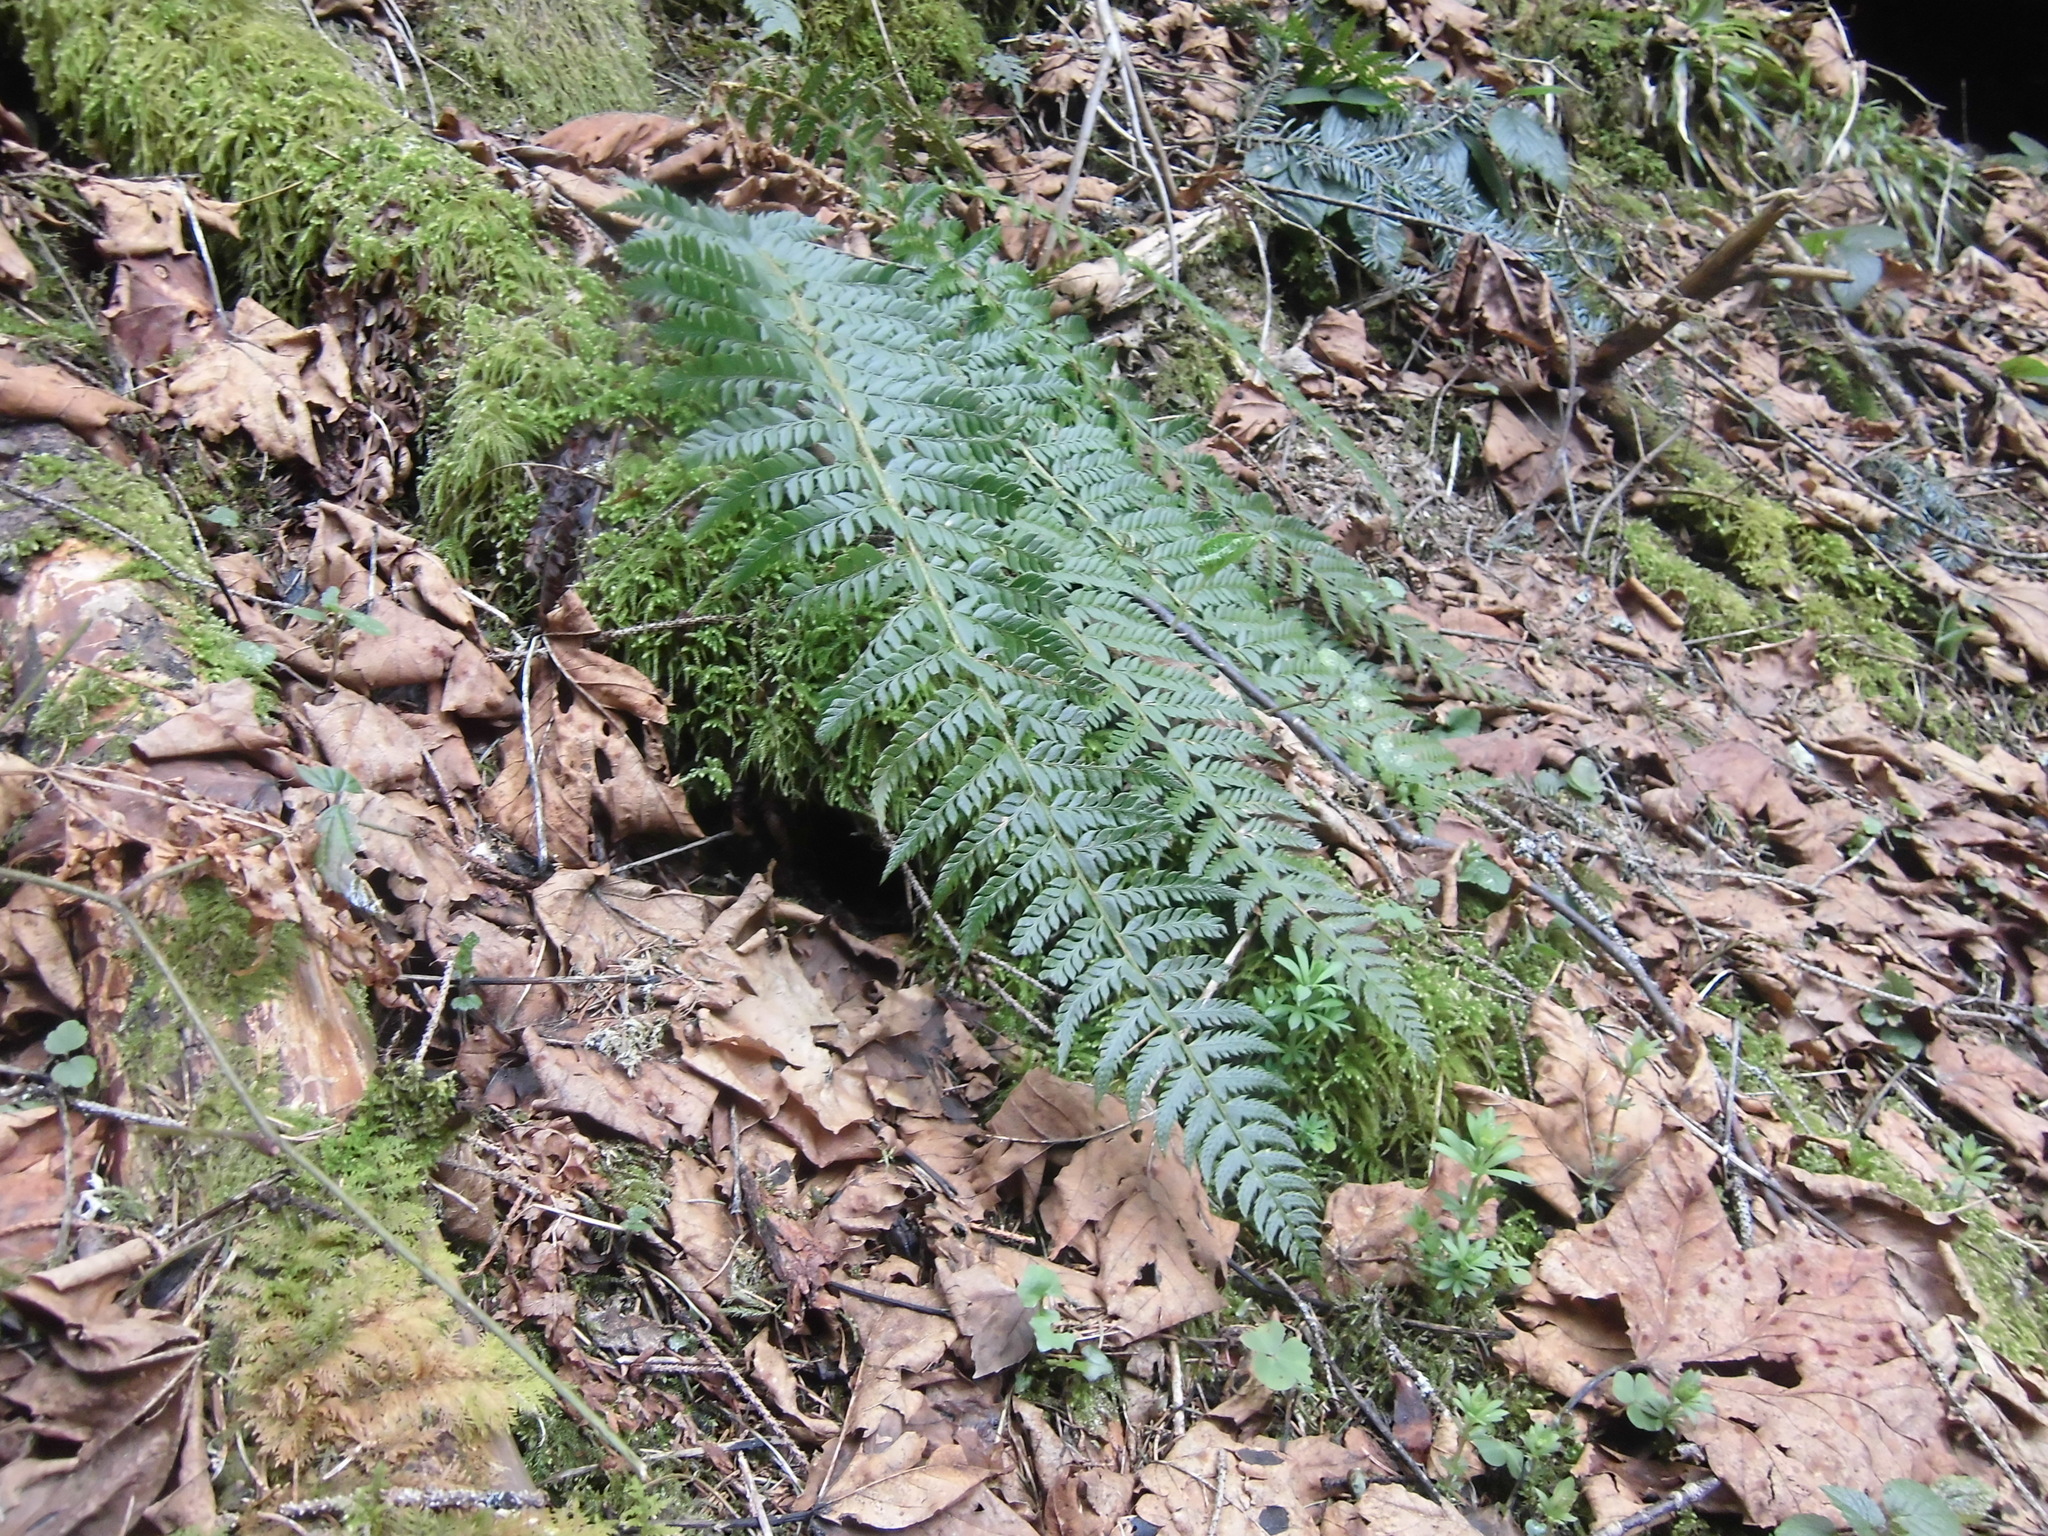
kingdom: Plantae
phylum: Tracheophyta
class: Polypodiopsida
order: Polypodiales
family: Dryopteridaceae
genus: Polystichum
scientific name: Polystichum aculeatum
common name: Hard shield-fern
